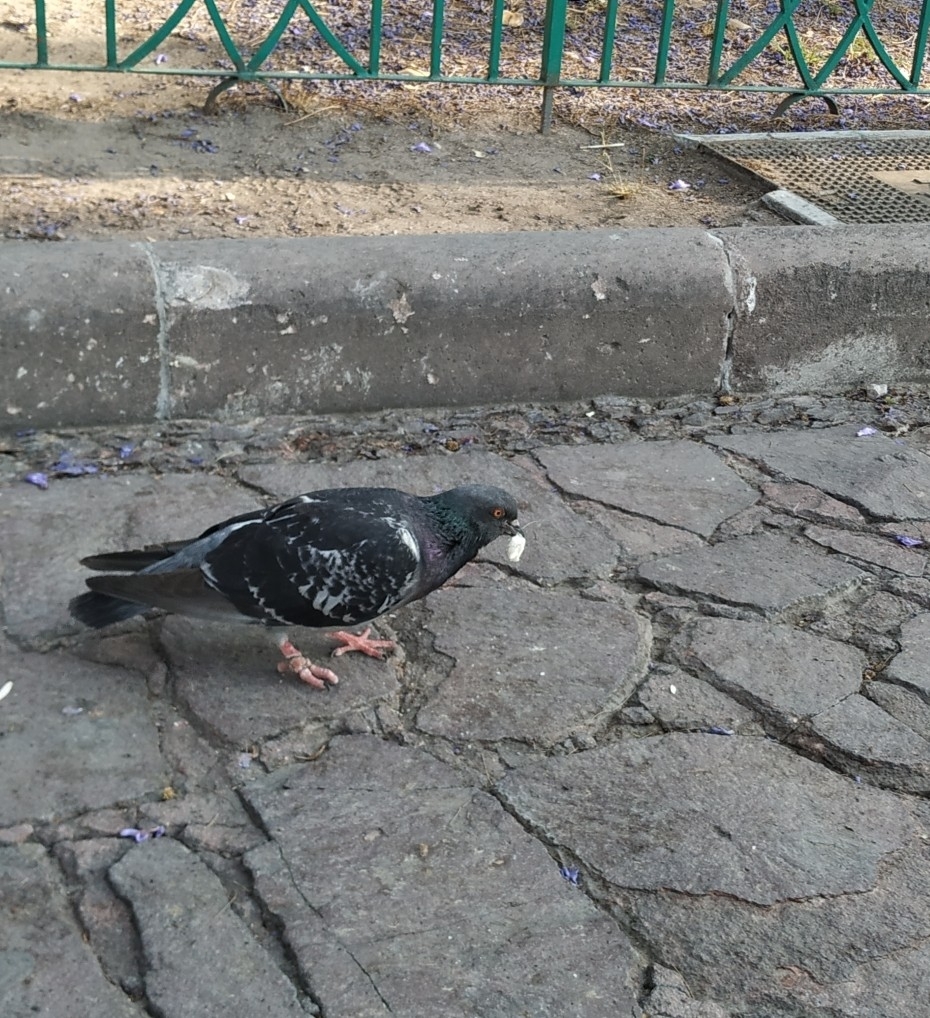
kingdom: Animalia
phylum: Chordata
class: Aves
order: Columbiformes
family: Columbidae
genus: Columba
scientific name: Columba livia
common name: Rock pigeon
